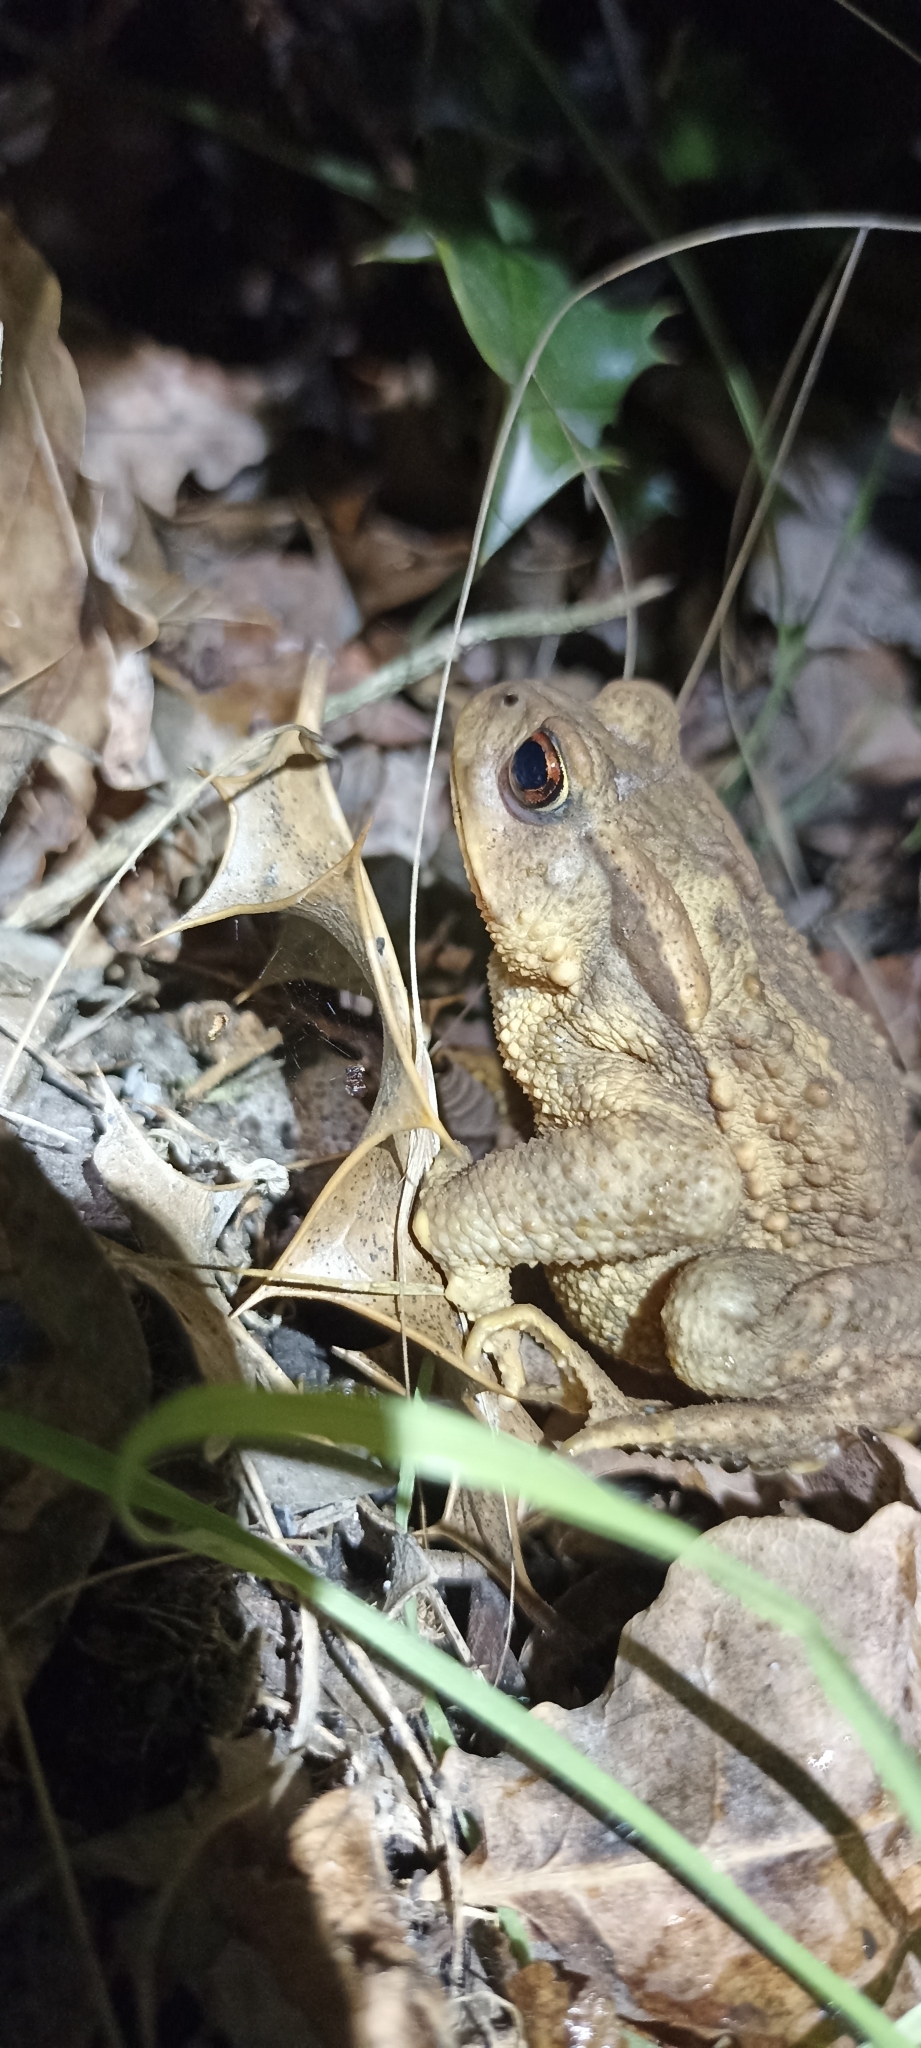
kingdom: Animalia
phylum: Chordata
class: Amphibia
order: Anura
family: Bufonidae
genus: Bufo
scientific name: Bufo spinosus
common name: Western common toad
